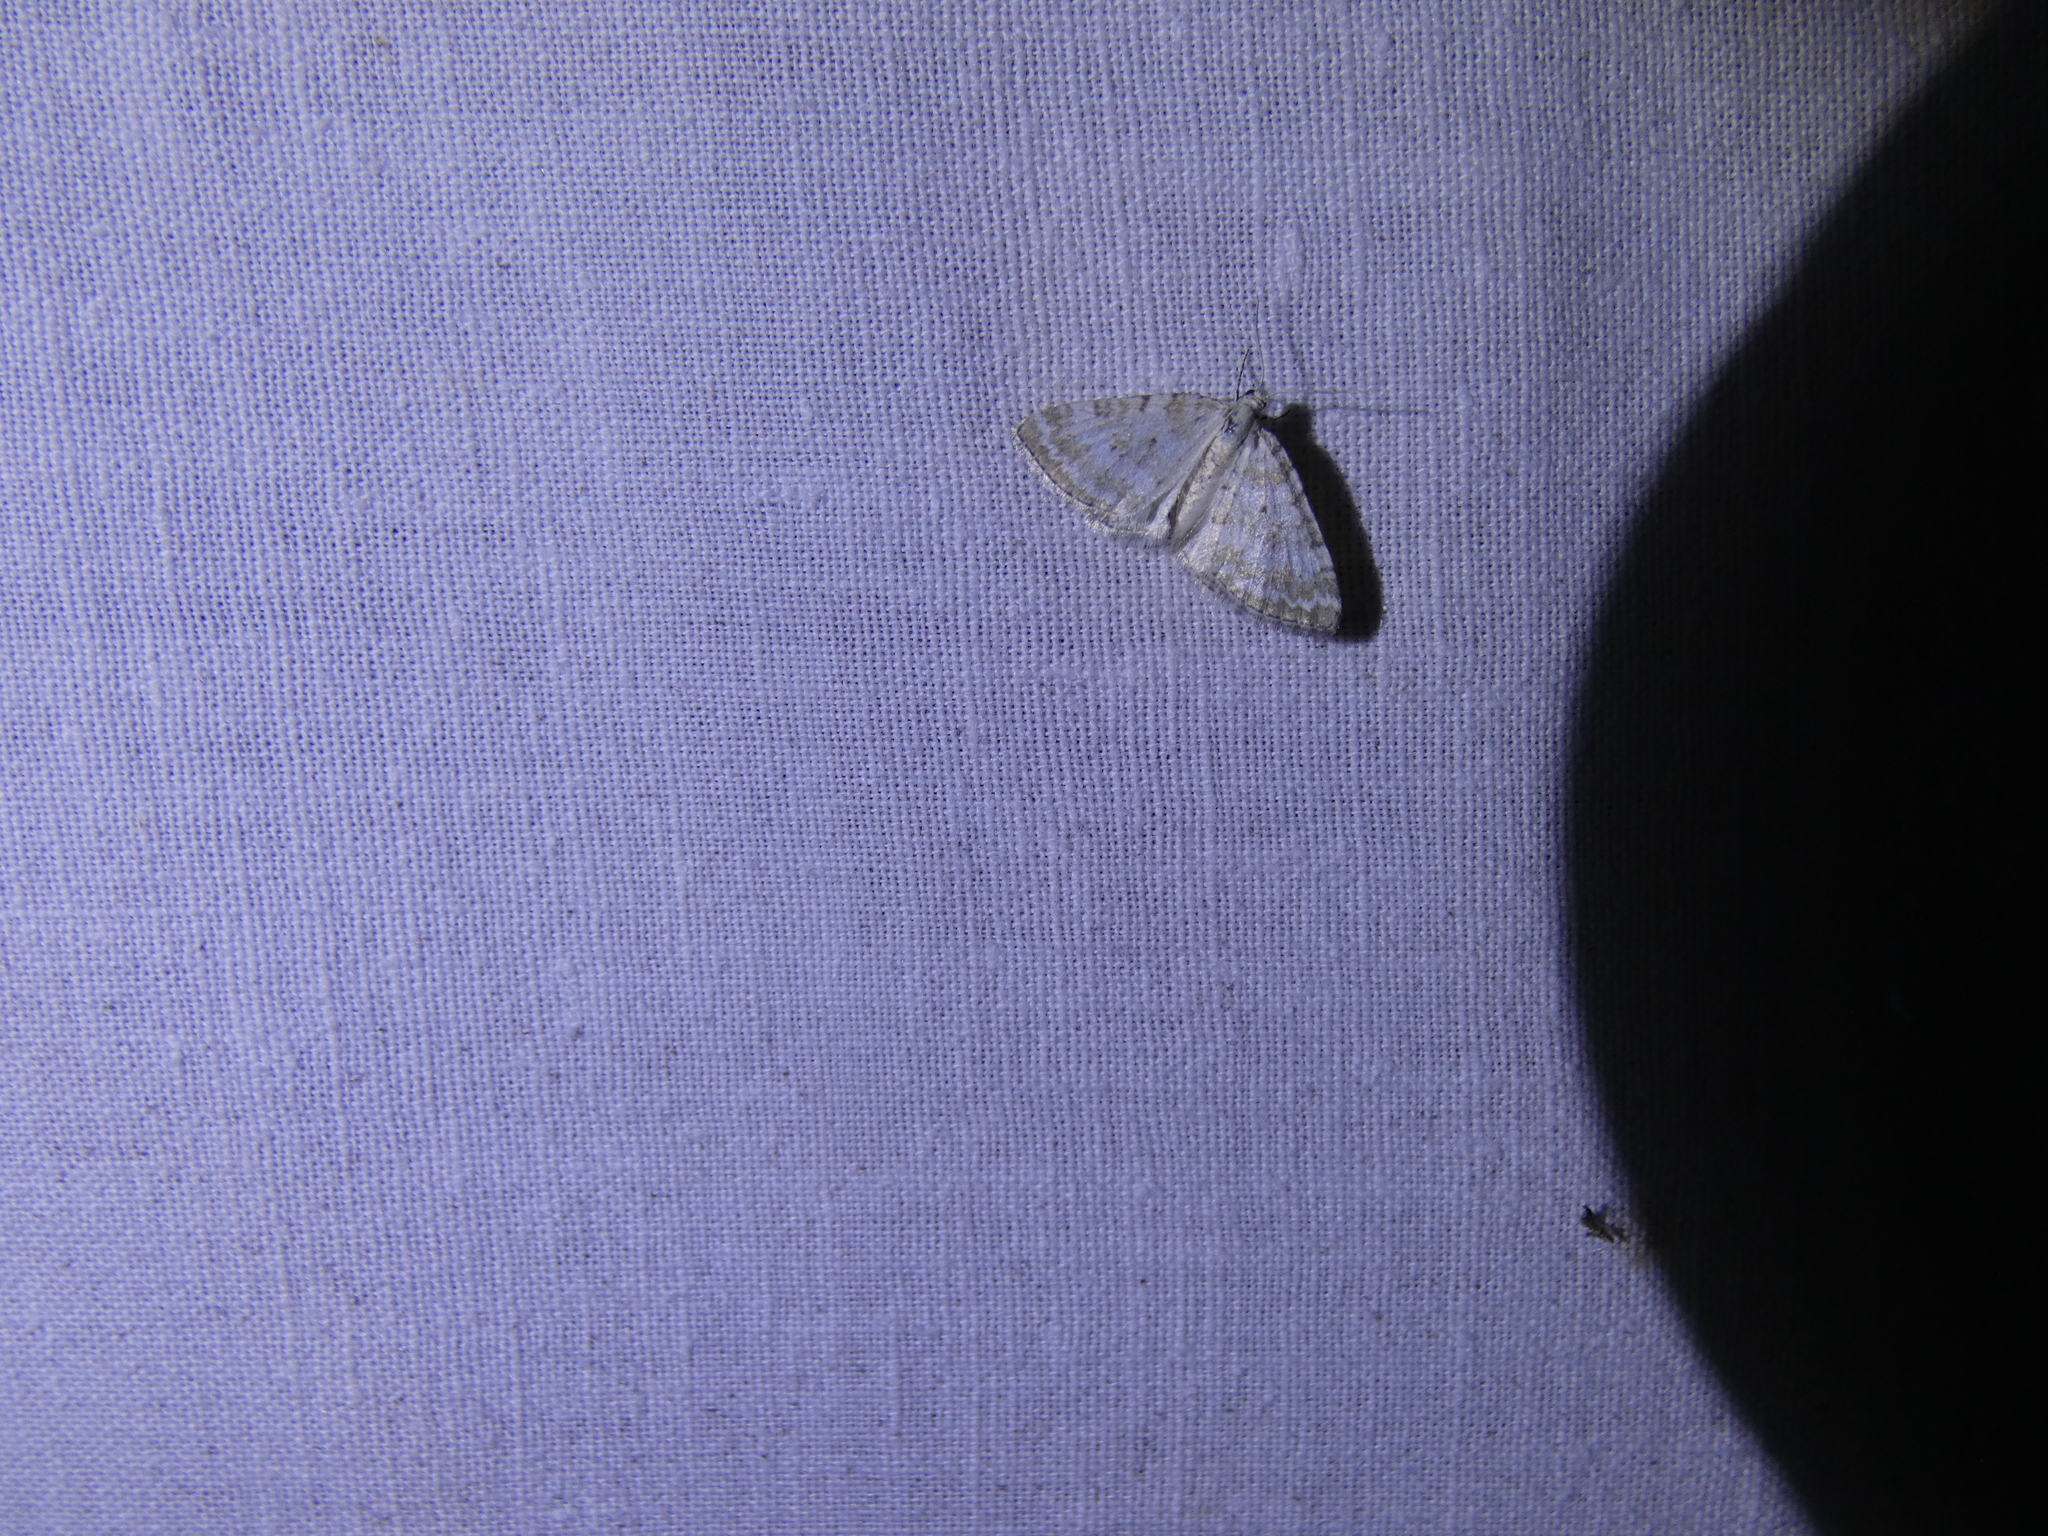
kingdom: Animalia
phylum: Arthropoda
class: Insecta
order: Lepidoptera
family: Geometridae
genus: Perizoma
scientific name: Perizoma albulata
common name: Grass rivulet
